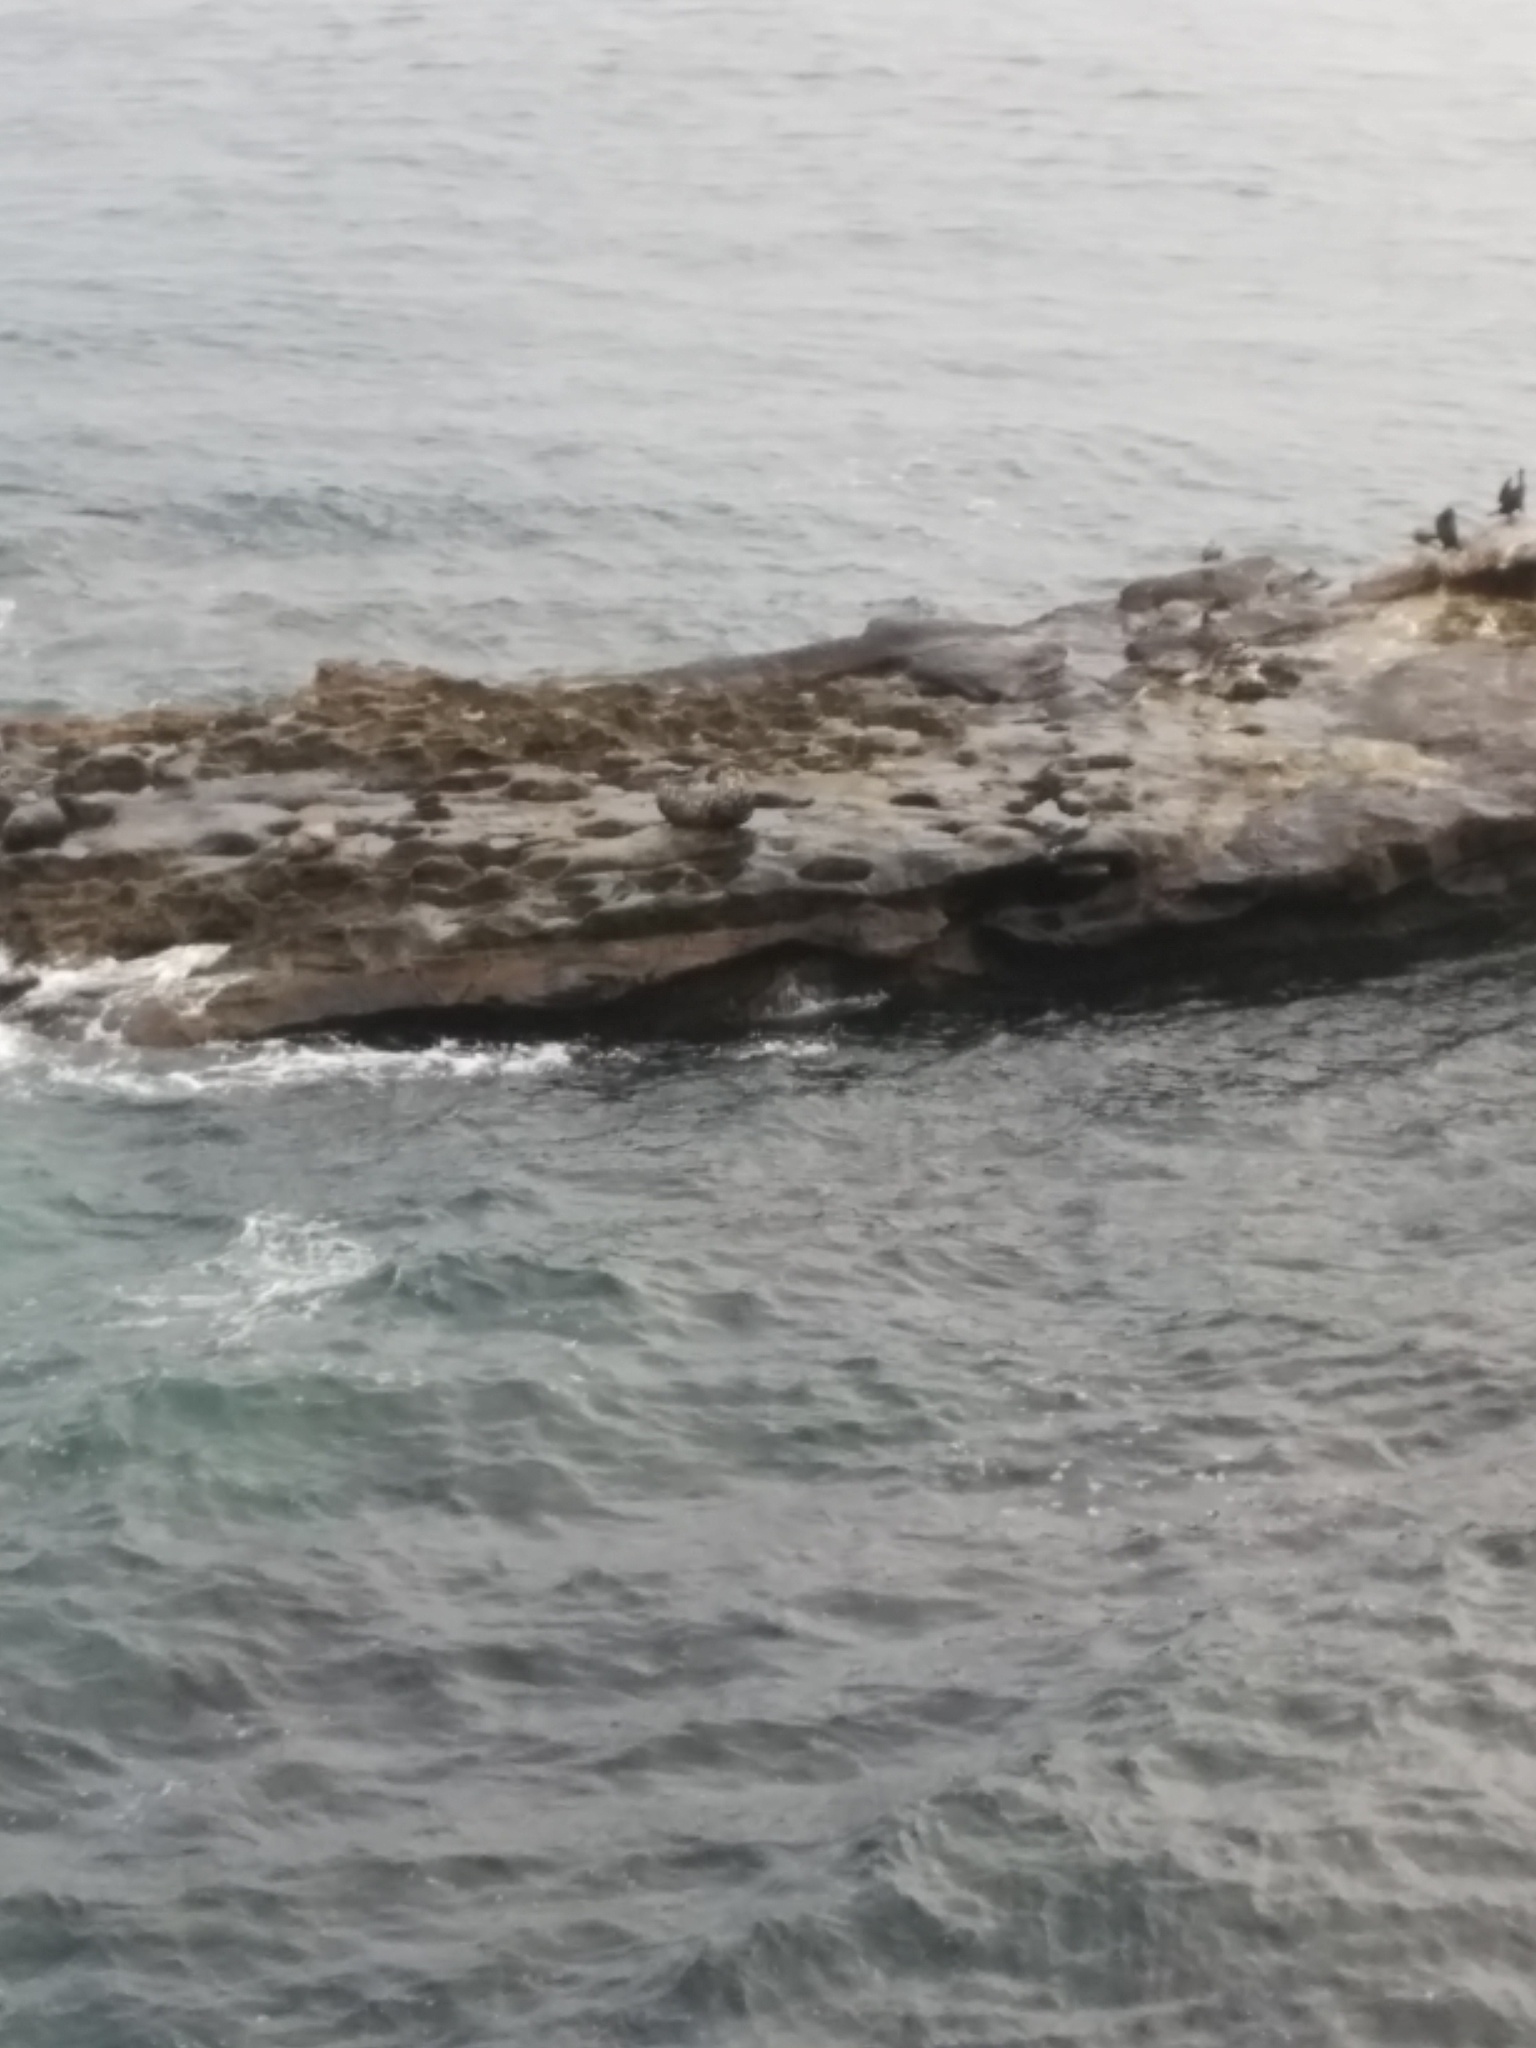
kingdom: Animalia
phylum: Chordata
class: Mammalia
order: Carnivora
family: Phocidae
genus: Phoca
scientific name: Phoca vitulina
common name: Harbor seal
